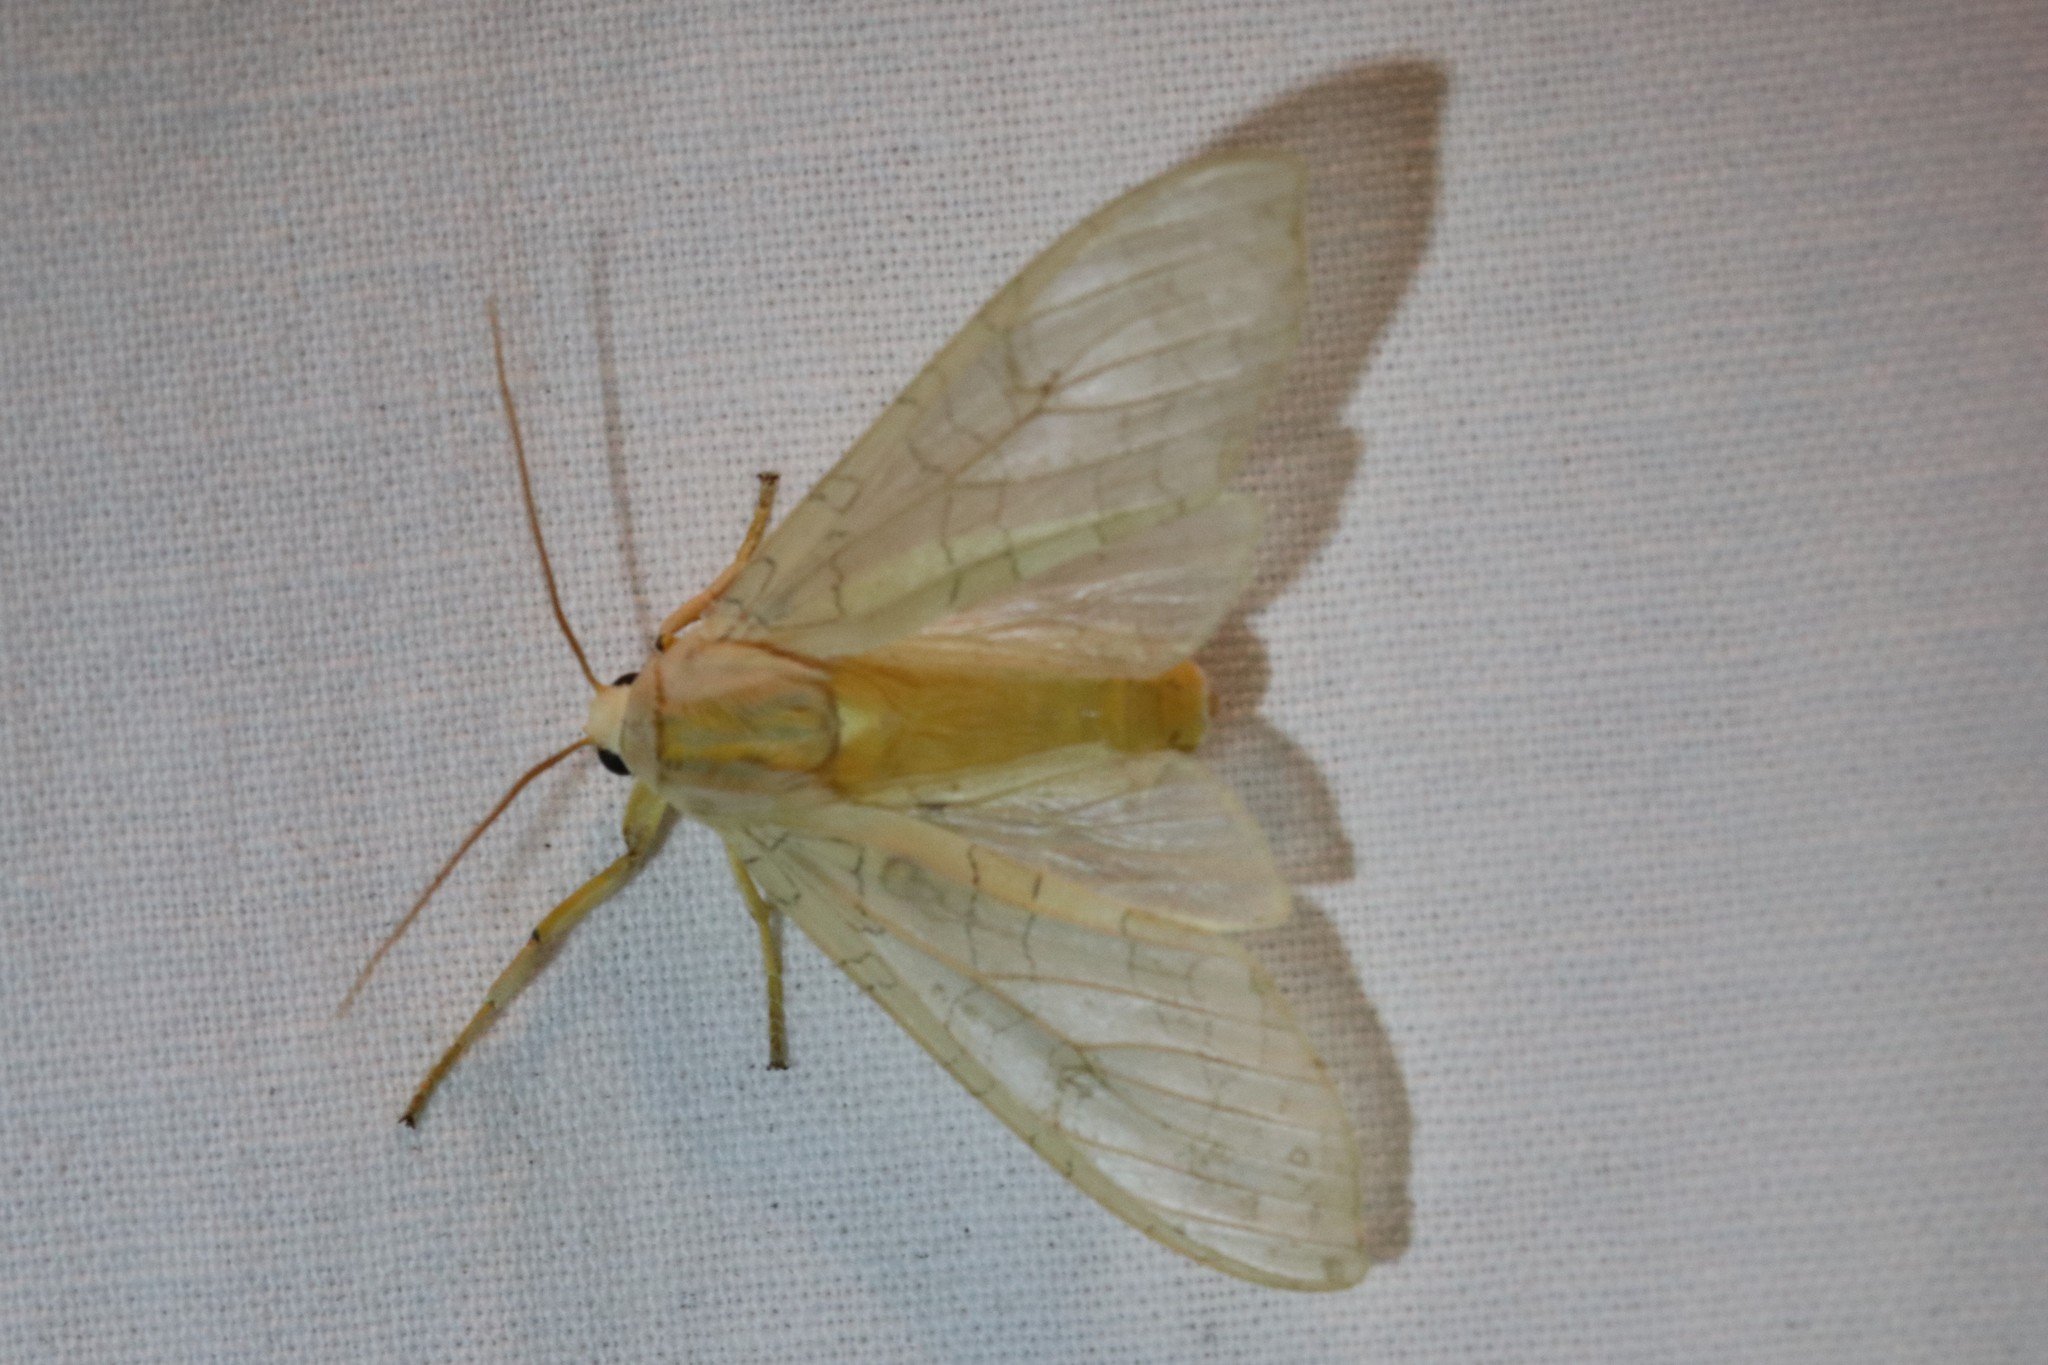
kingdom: Animalia
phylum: Arthropoda
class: Insecta
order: Lepidoptera
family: Erebidae
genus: Halysidota
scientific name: Halysidota tessellaris
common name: Banded tussock moth
